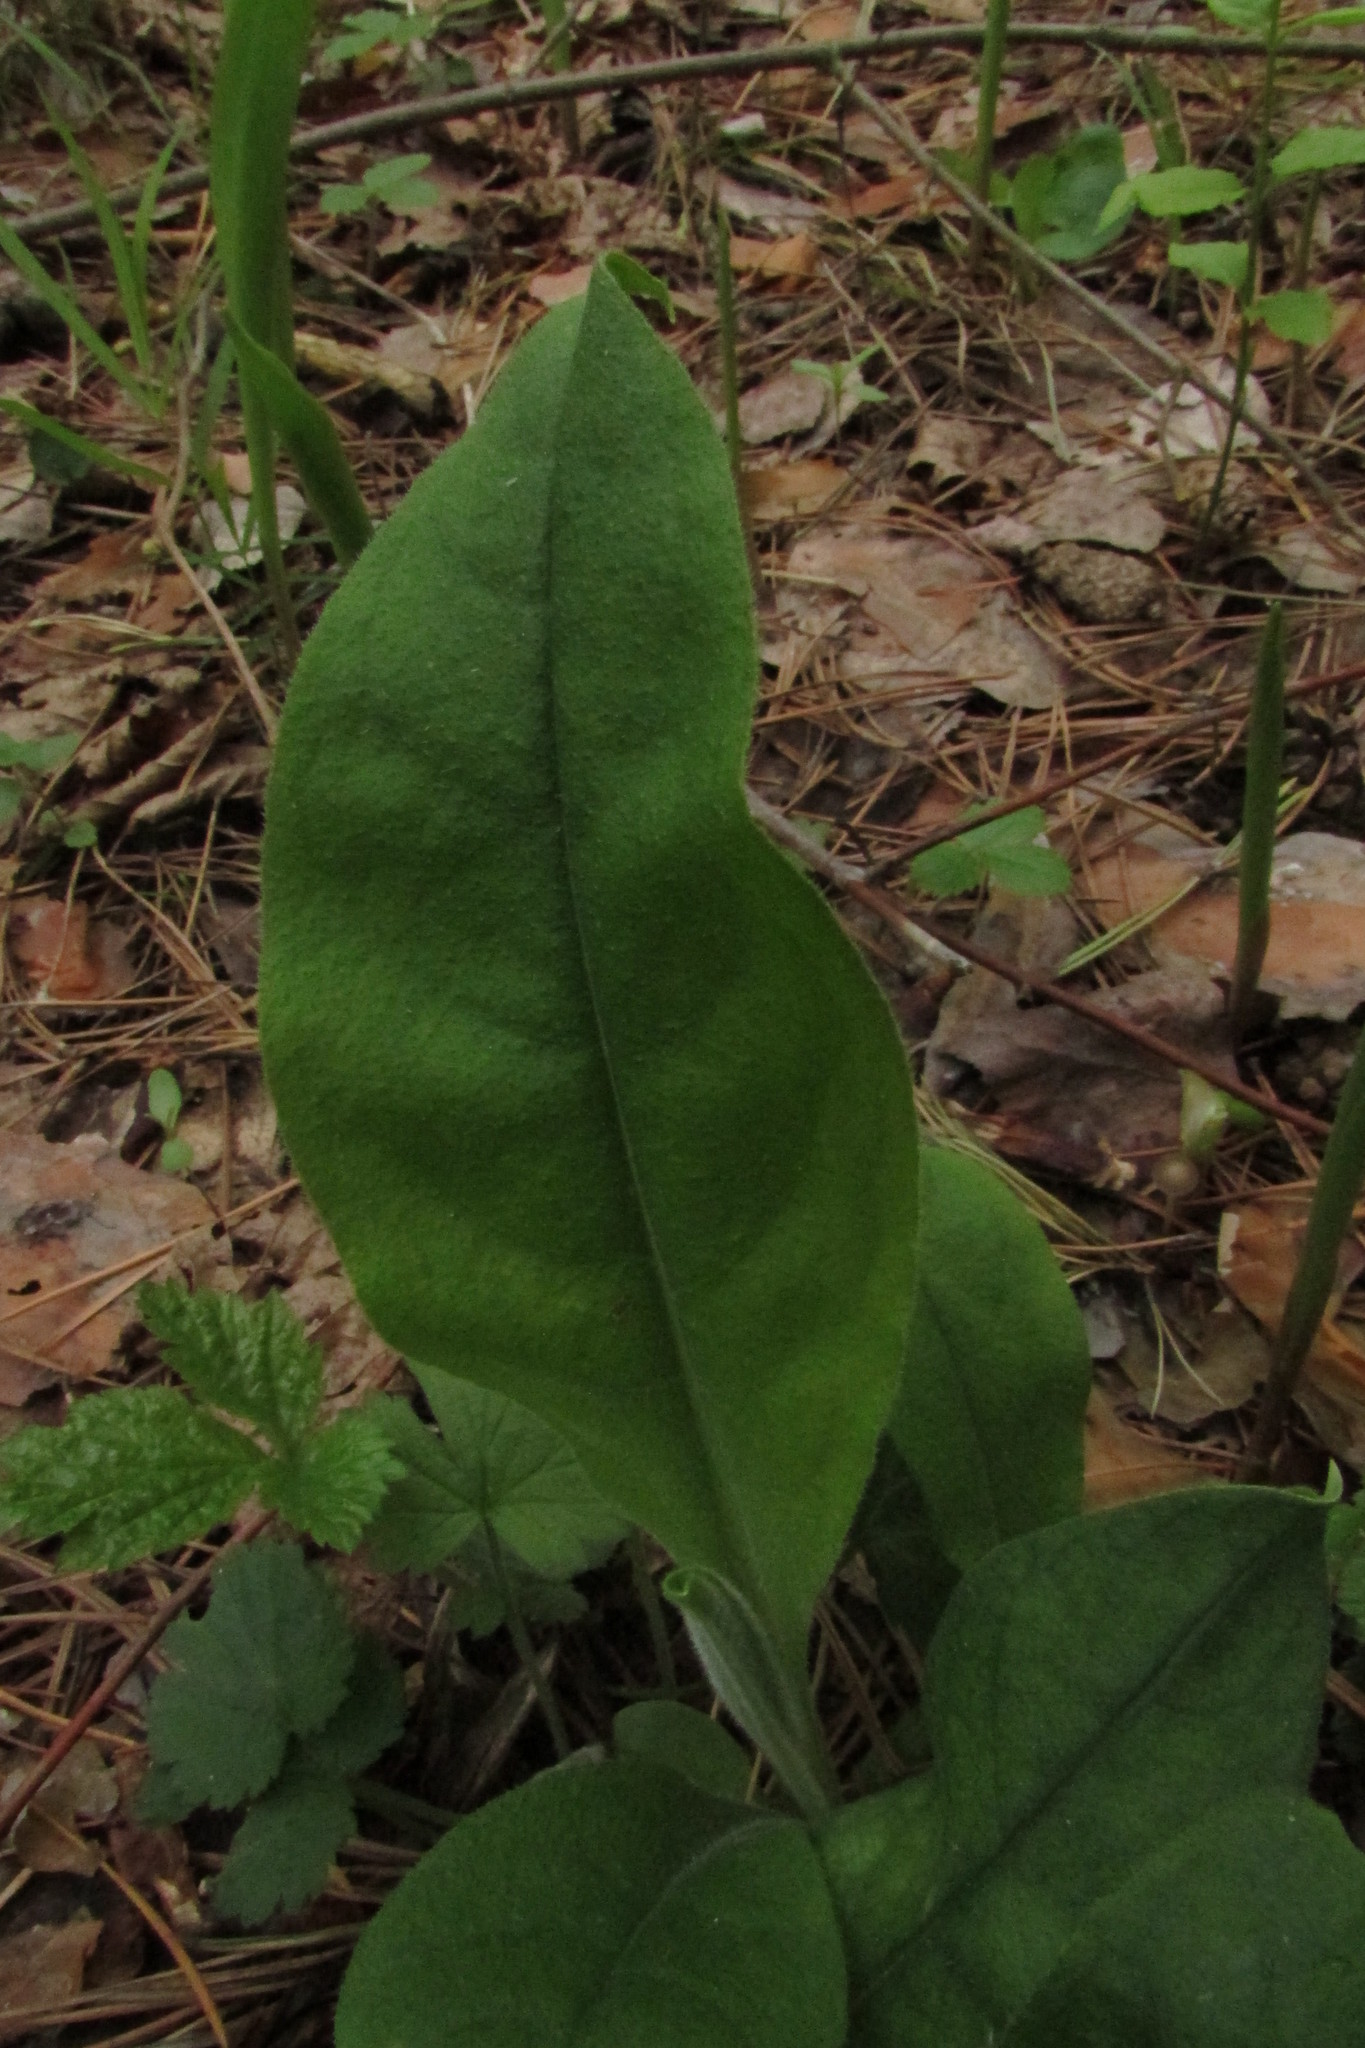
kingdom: Plantae
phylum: Tracheophyta
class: Magnoliopsida
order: Boraginales
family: Boraginaceae
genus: Pulmonaria
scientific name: Pulmonaria angustifolia
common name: Blue cowslip
